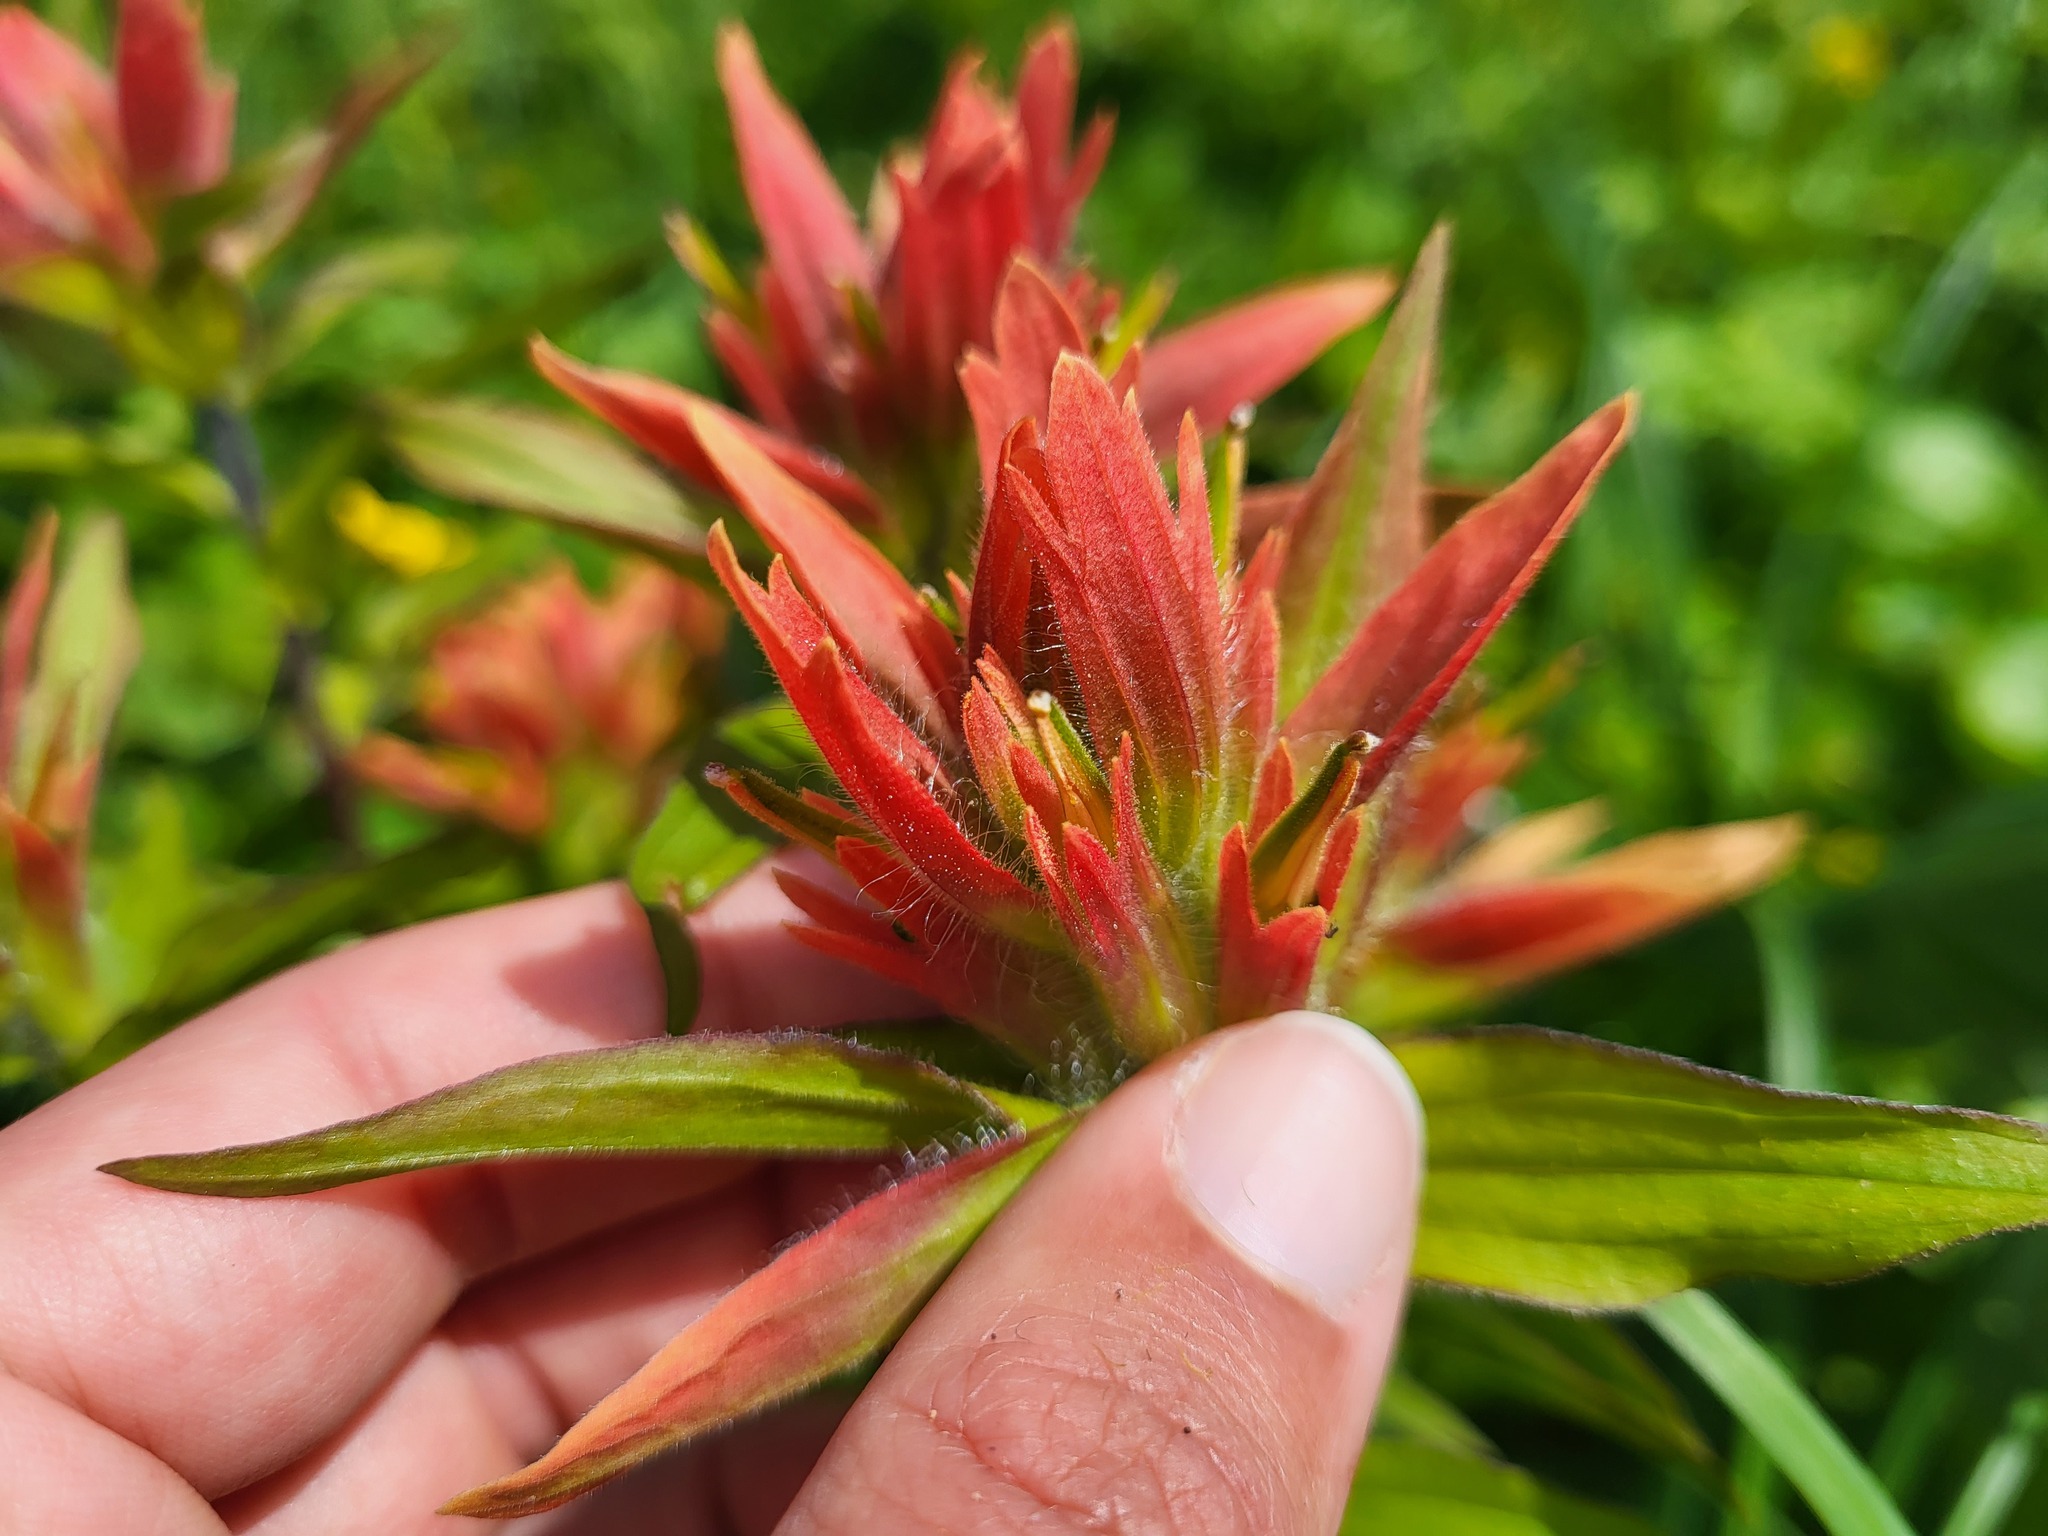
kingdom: Plantae
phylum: Tracheophyta
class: Magnoliopsida
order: Lamiales
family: Orobanchaceae
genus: Castilleja
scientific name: Castilleja miniata
